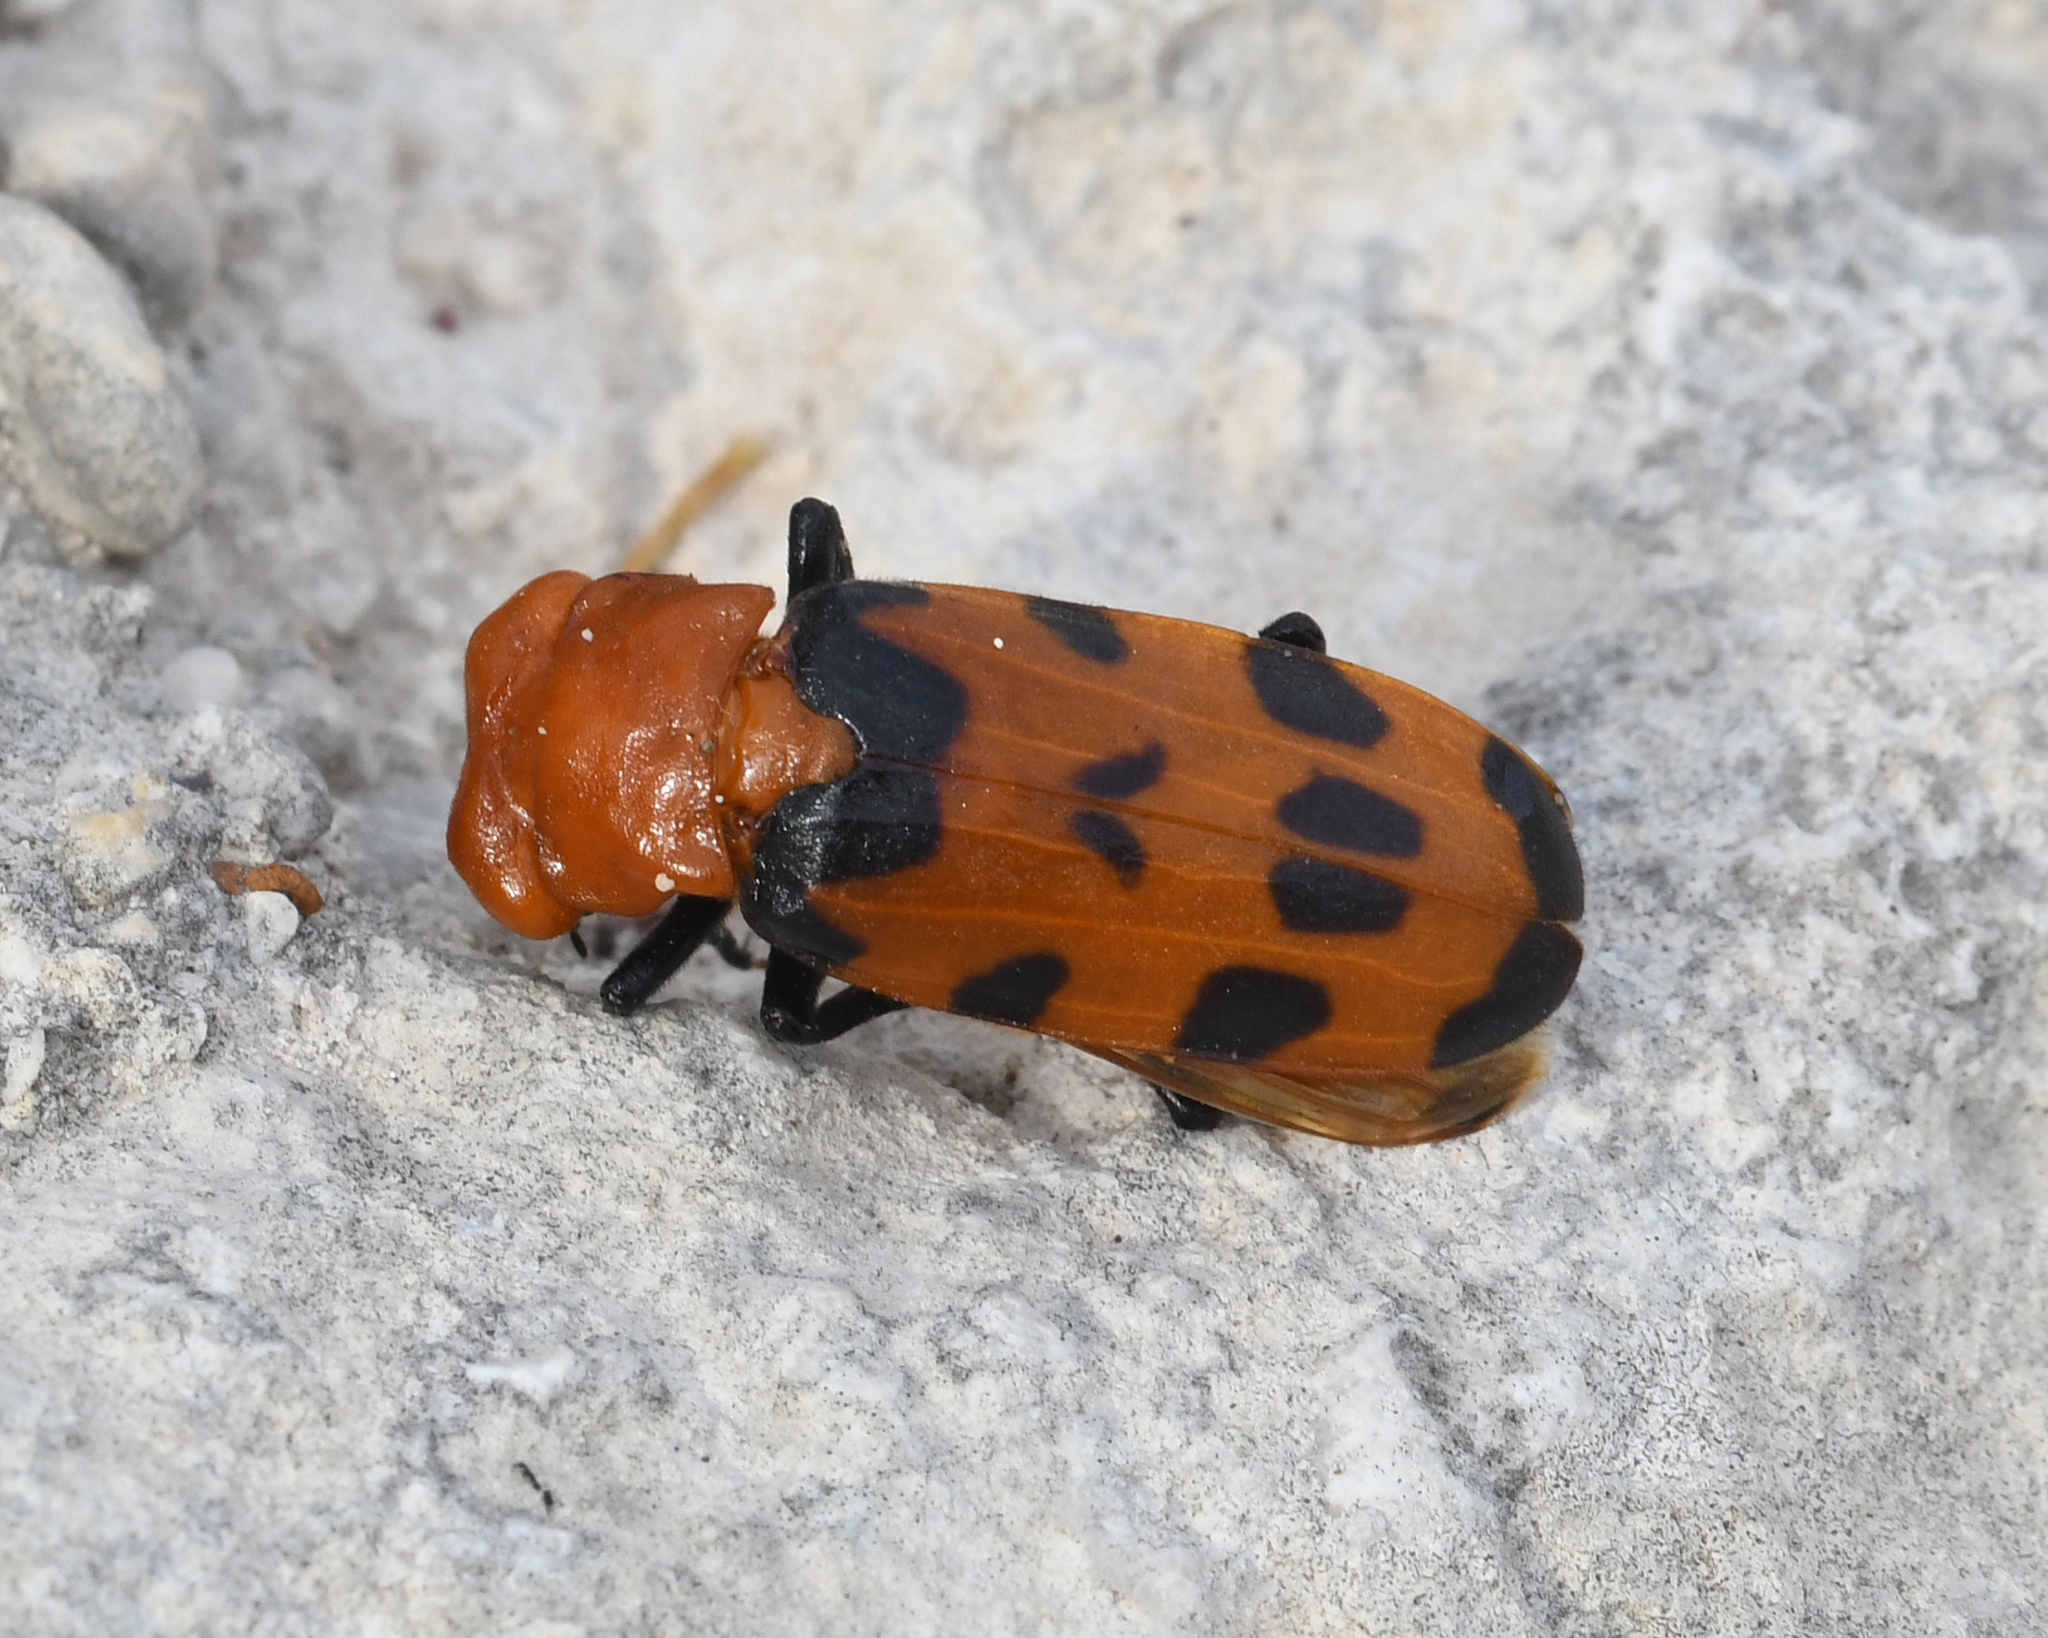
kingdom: Animalia
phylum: Arthropoda
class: Insecta
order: Coleoptera
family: Meloidae
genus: Cissites
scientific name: Cissites maculata
